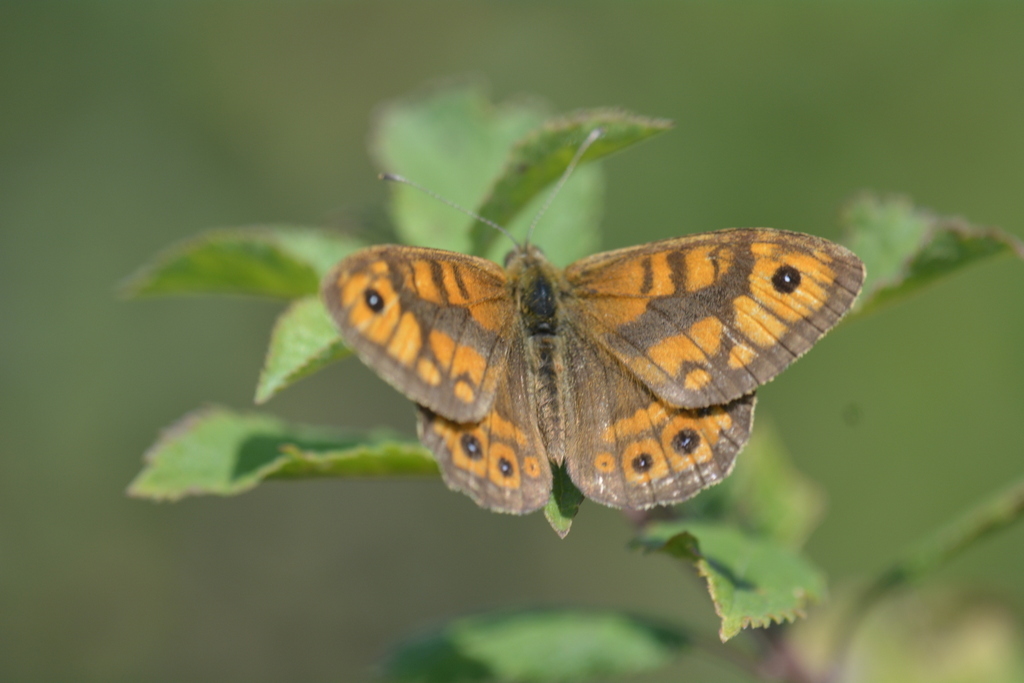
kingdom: Animalia
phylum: Arthropoda
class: Insecta
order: Lepidoptera
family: Nymphalidae
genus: Pararge
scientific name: Pararge Lasiommata megera
